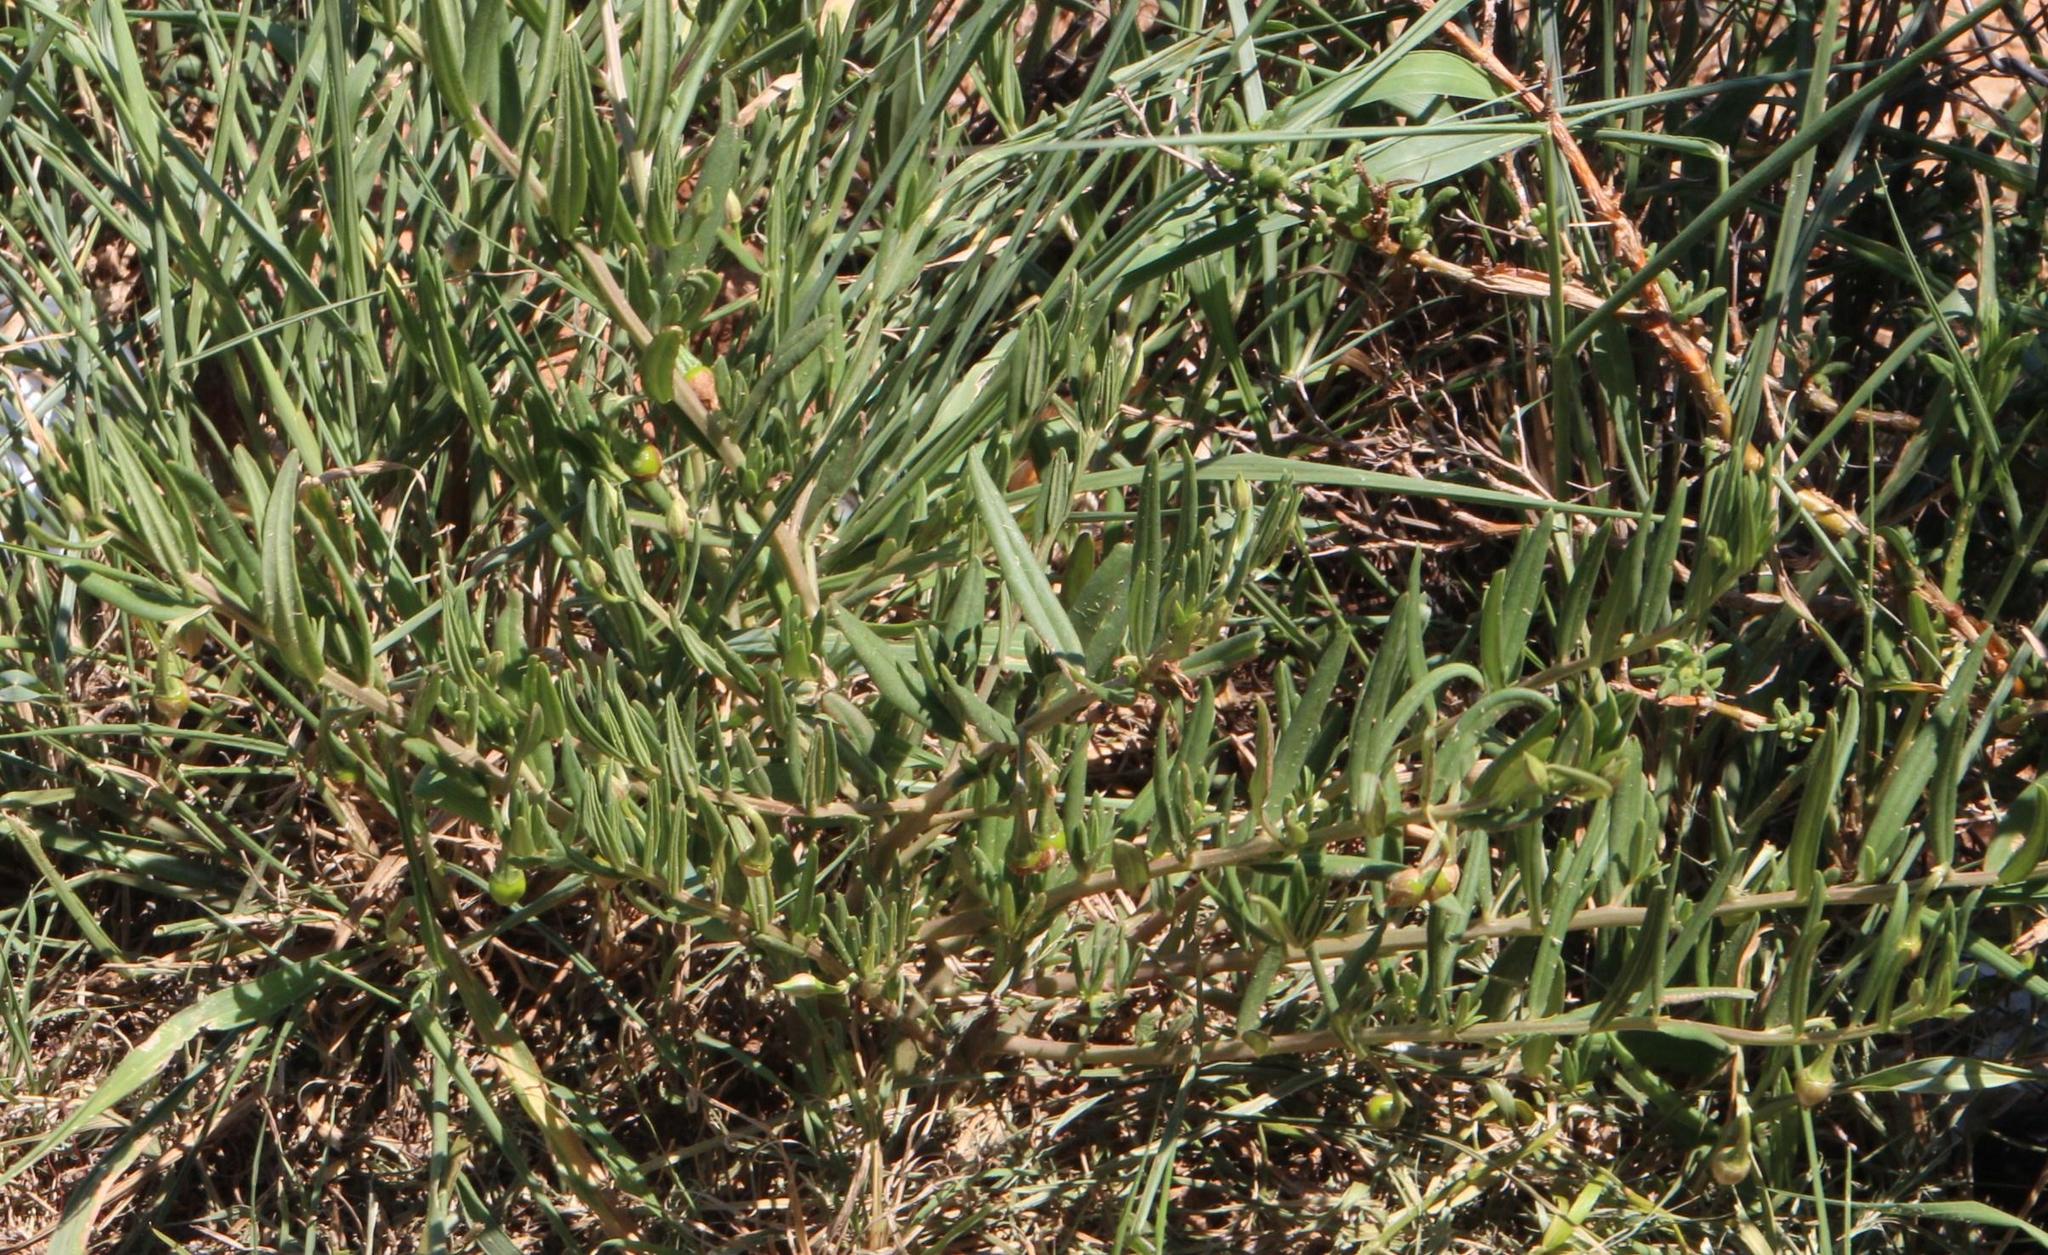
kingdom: Plantae
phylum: Tracheophyta
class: Magnoliopsida
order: Caryophyllales
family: Talinaceae
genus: Talinum
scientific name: Talinum caffrum
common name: Flameflower
